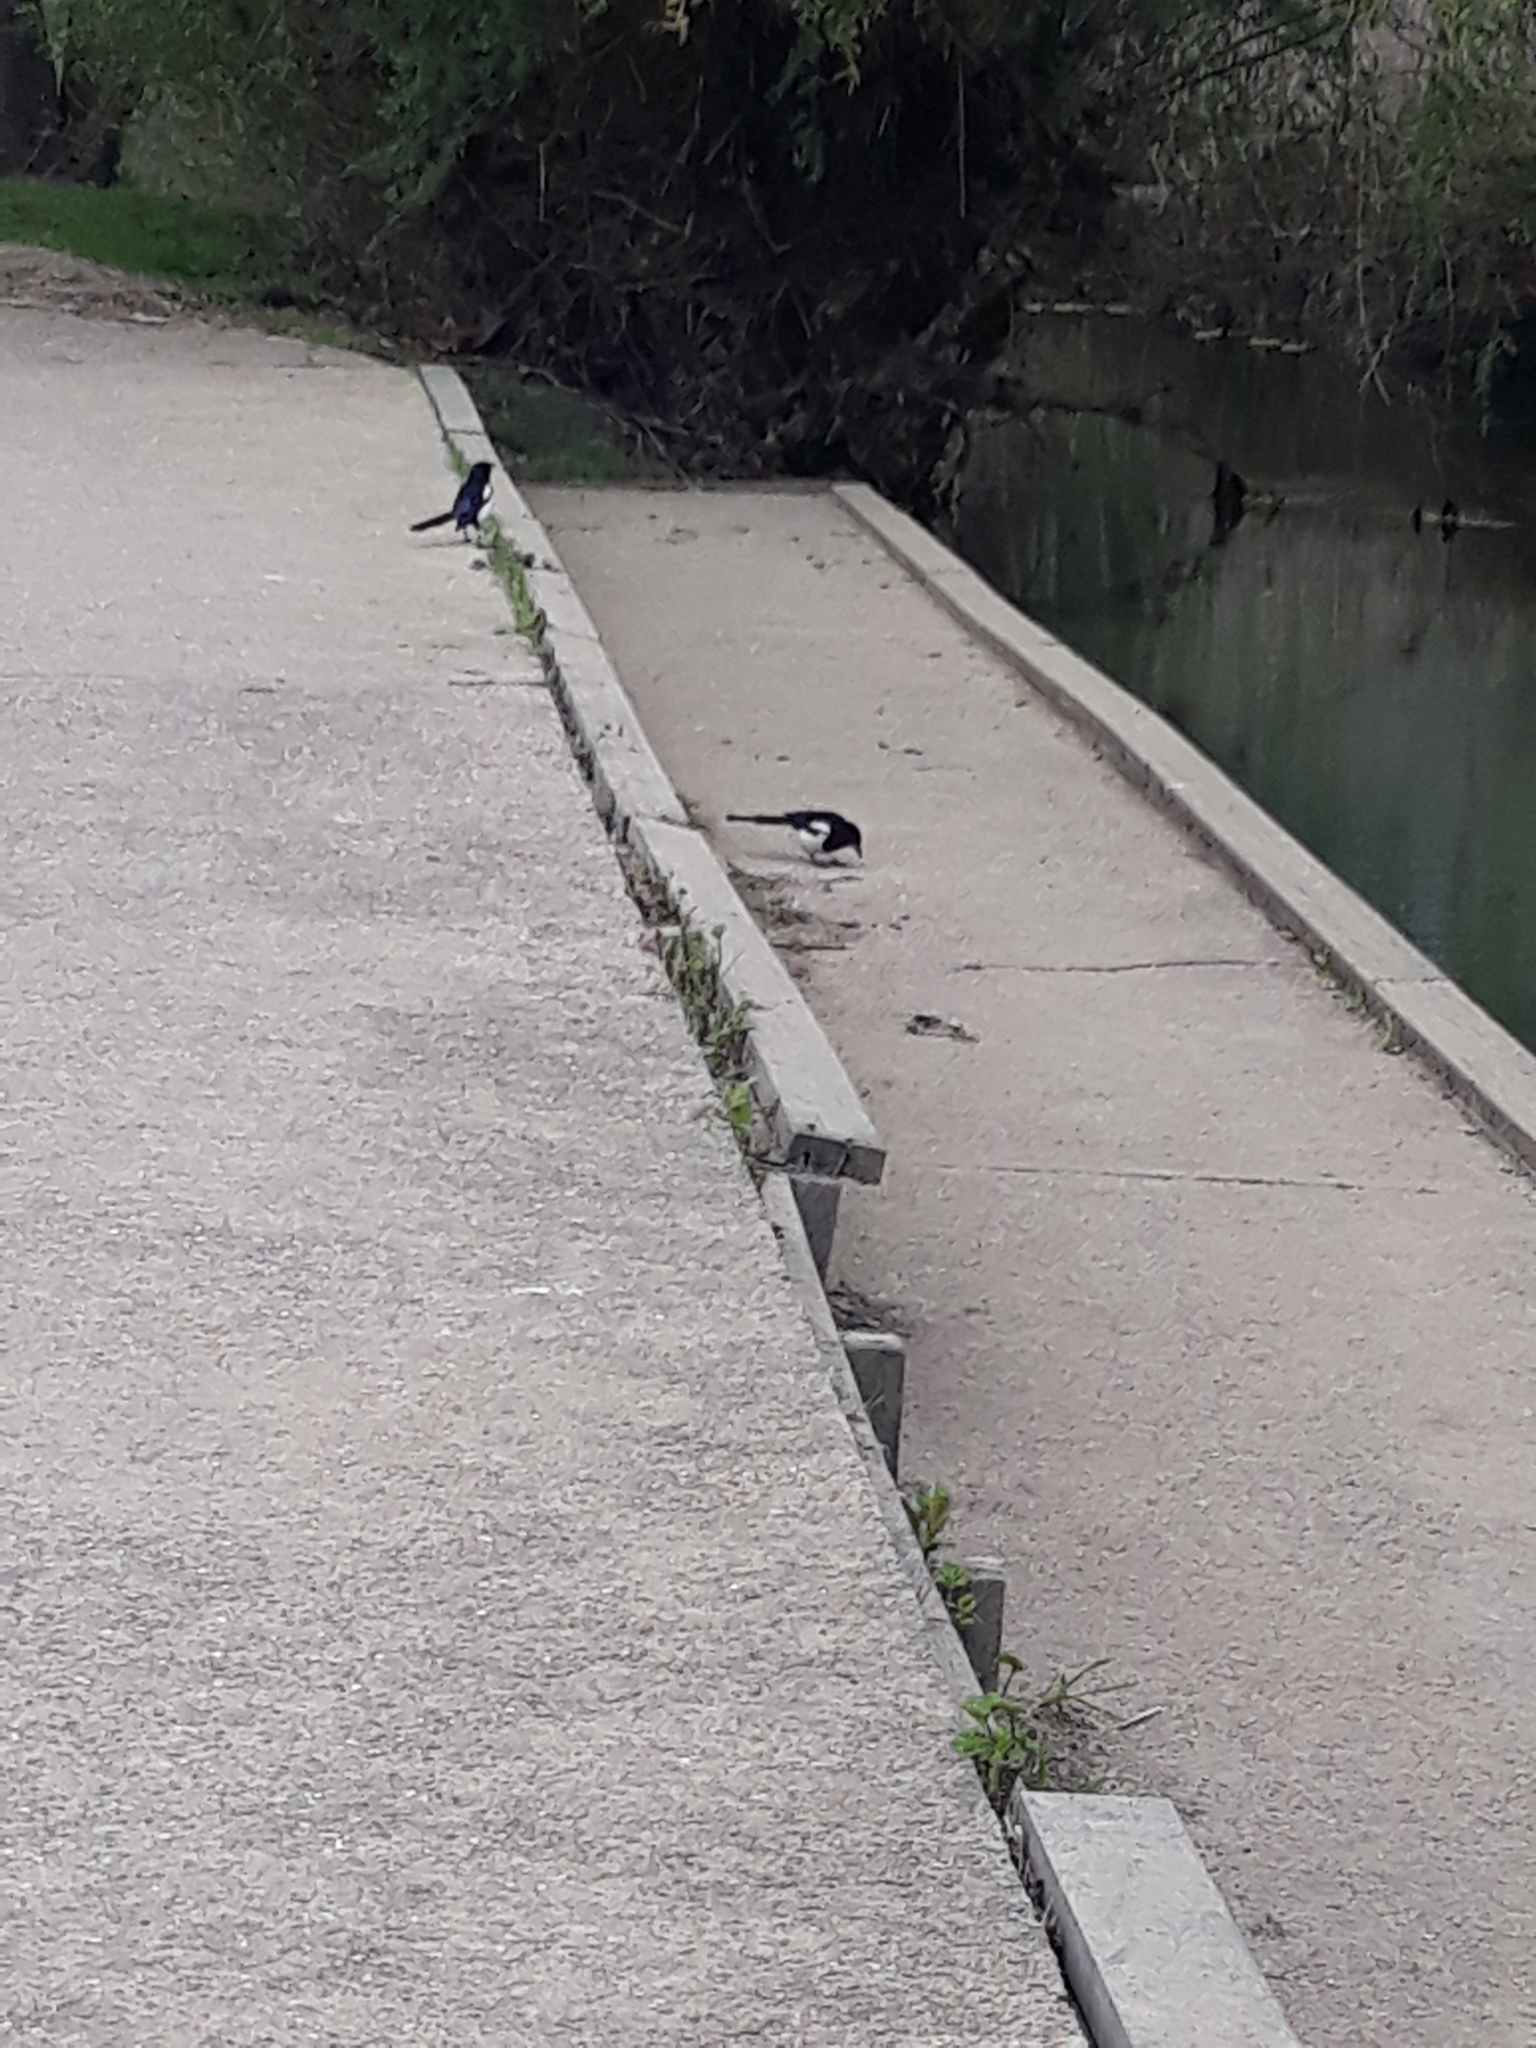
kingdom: Animalia
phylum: Chordata
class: Aves
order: Passeriformes
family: Corvidae
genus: Pica
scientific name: Pica pica
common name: Eurasian magpie
